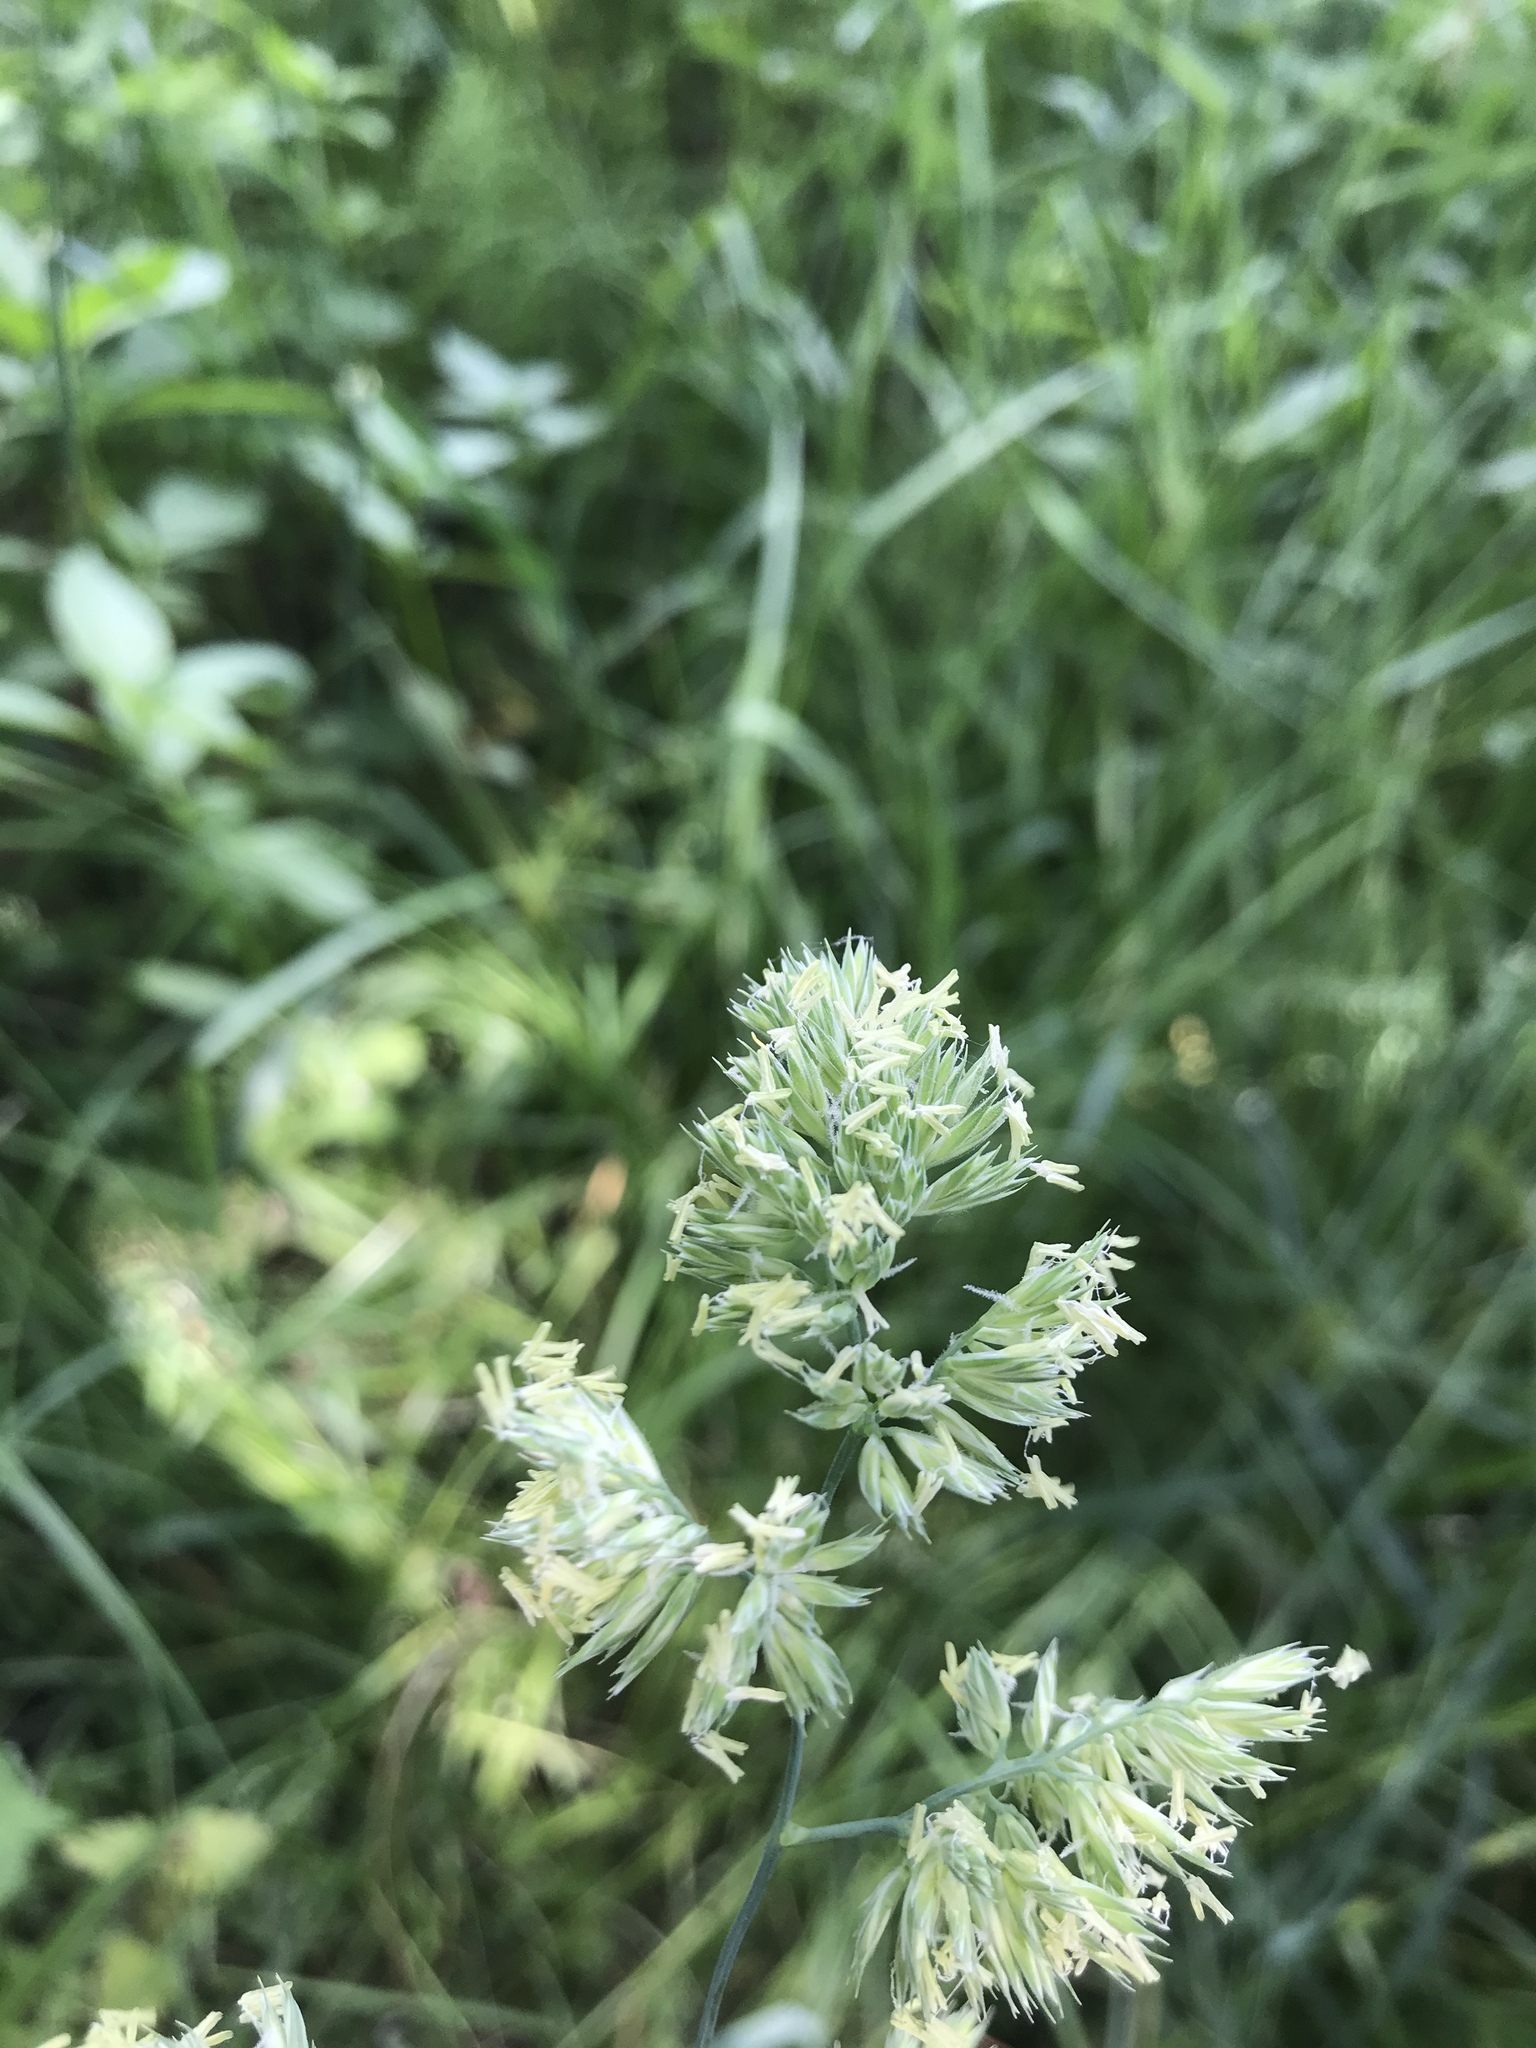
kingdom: Plantae
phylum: Tracheophyta
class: Liliopsida
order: Poales
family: Poaceae
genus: Dactylis
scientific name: Dactylis glomerata
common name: Orchardgrass
